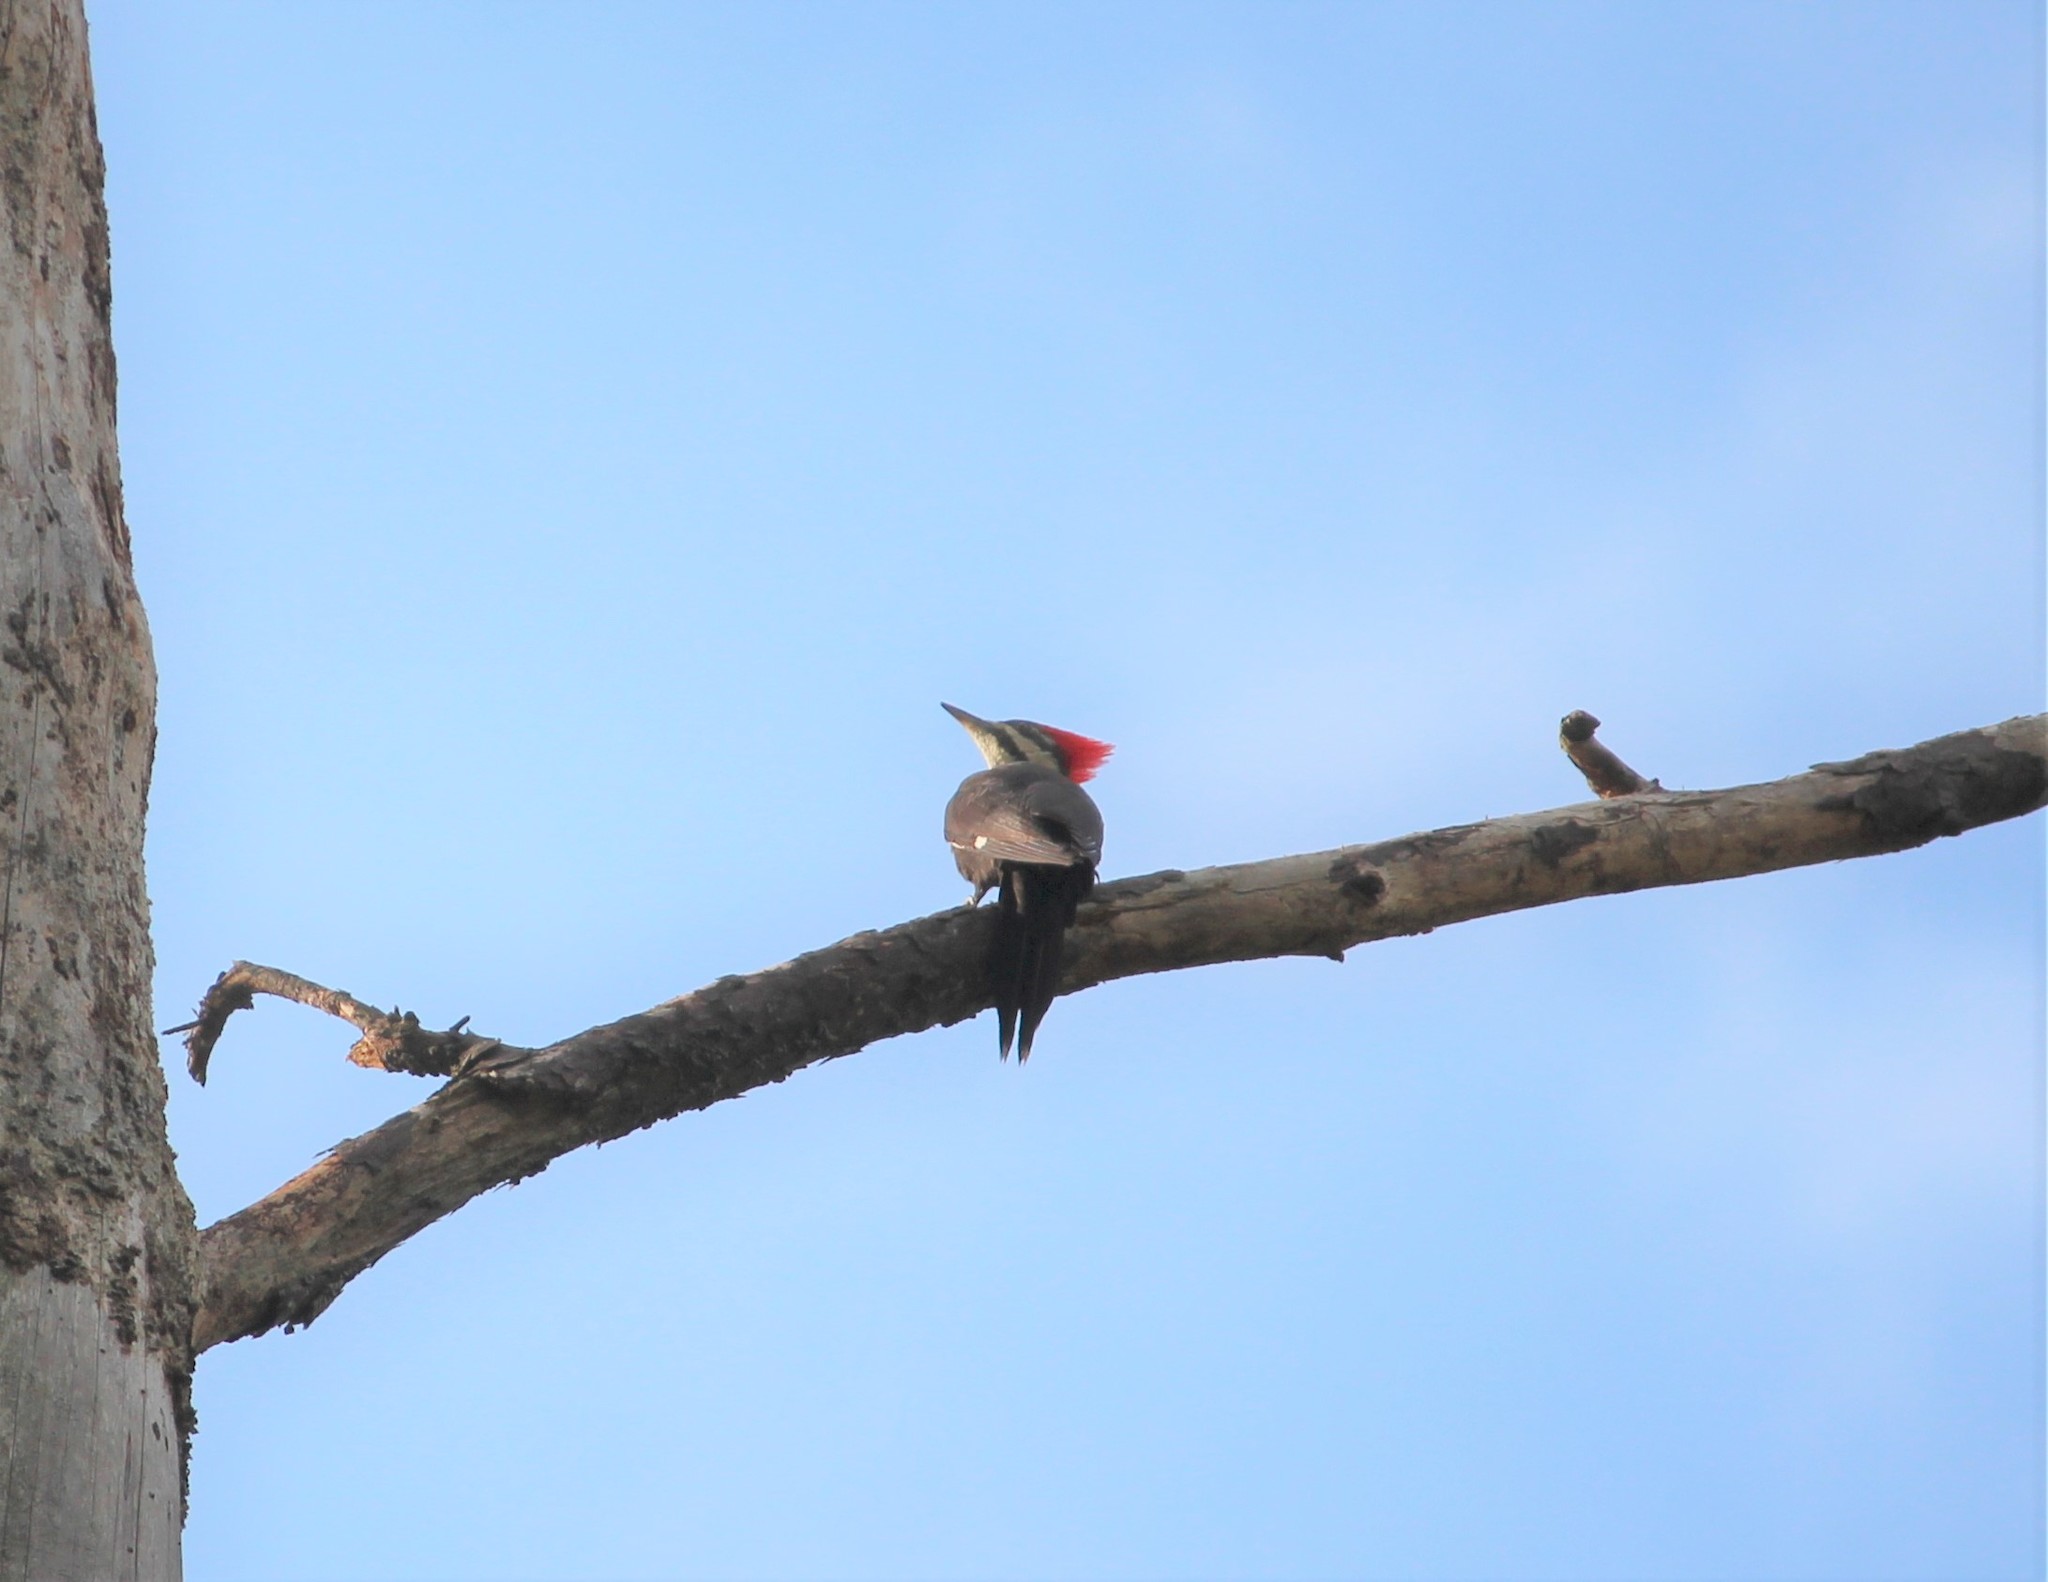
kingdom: Animalia
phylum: Chordata
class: Aves
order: Piciformes
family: Picidae
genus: Dryocopus
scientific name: Dryocopus pileatus
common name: Pileated woodpecker
